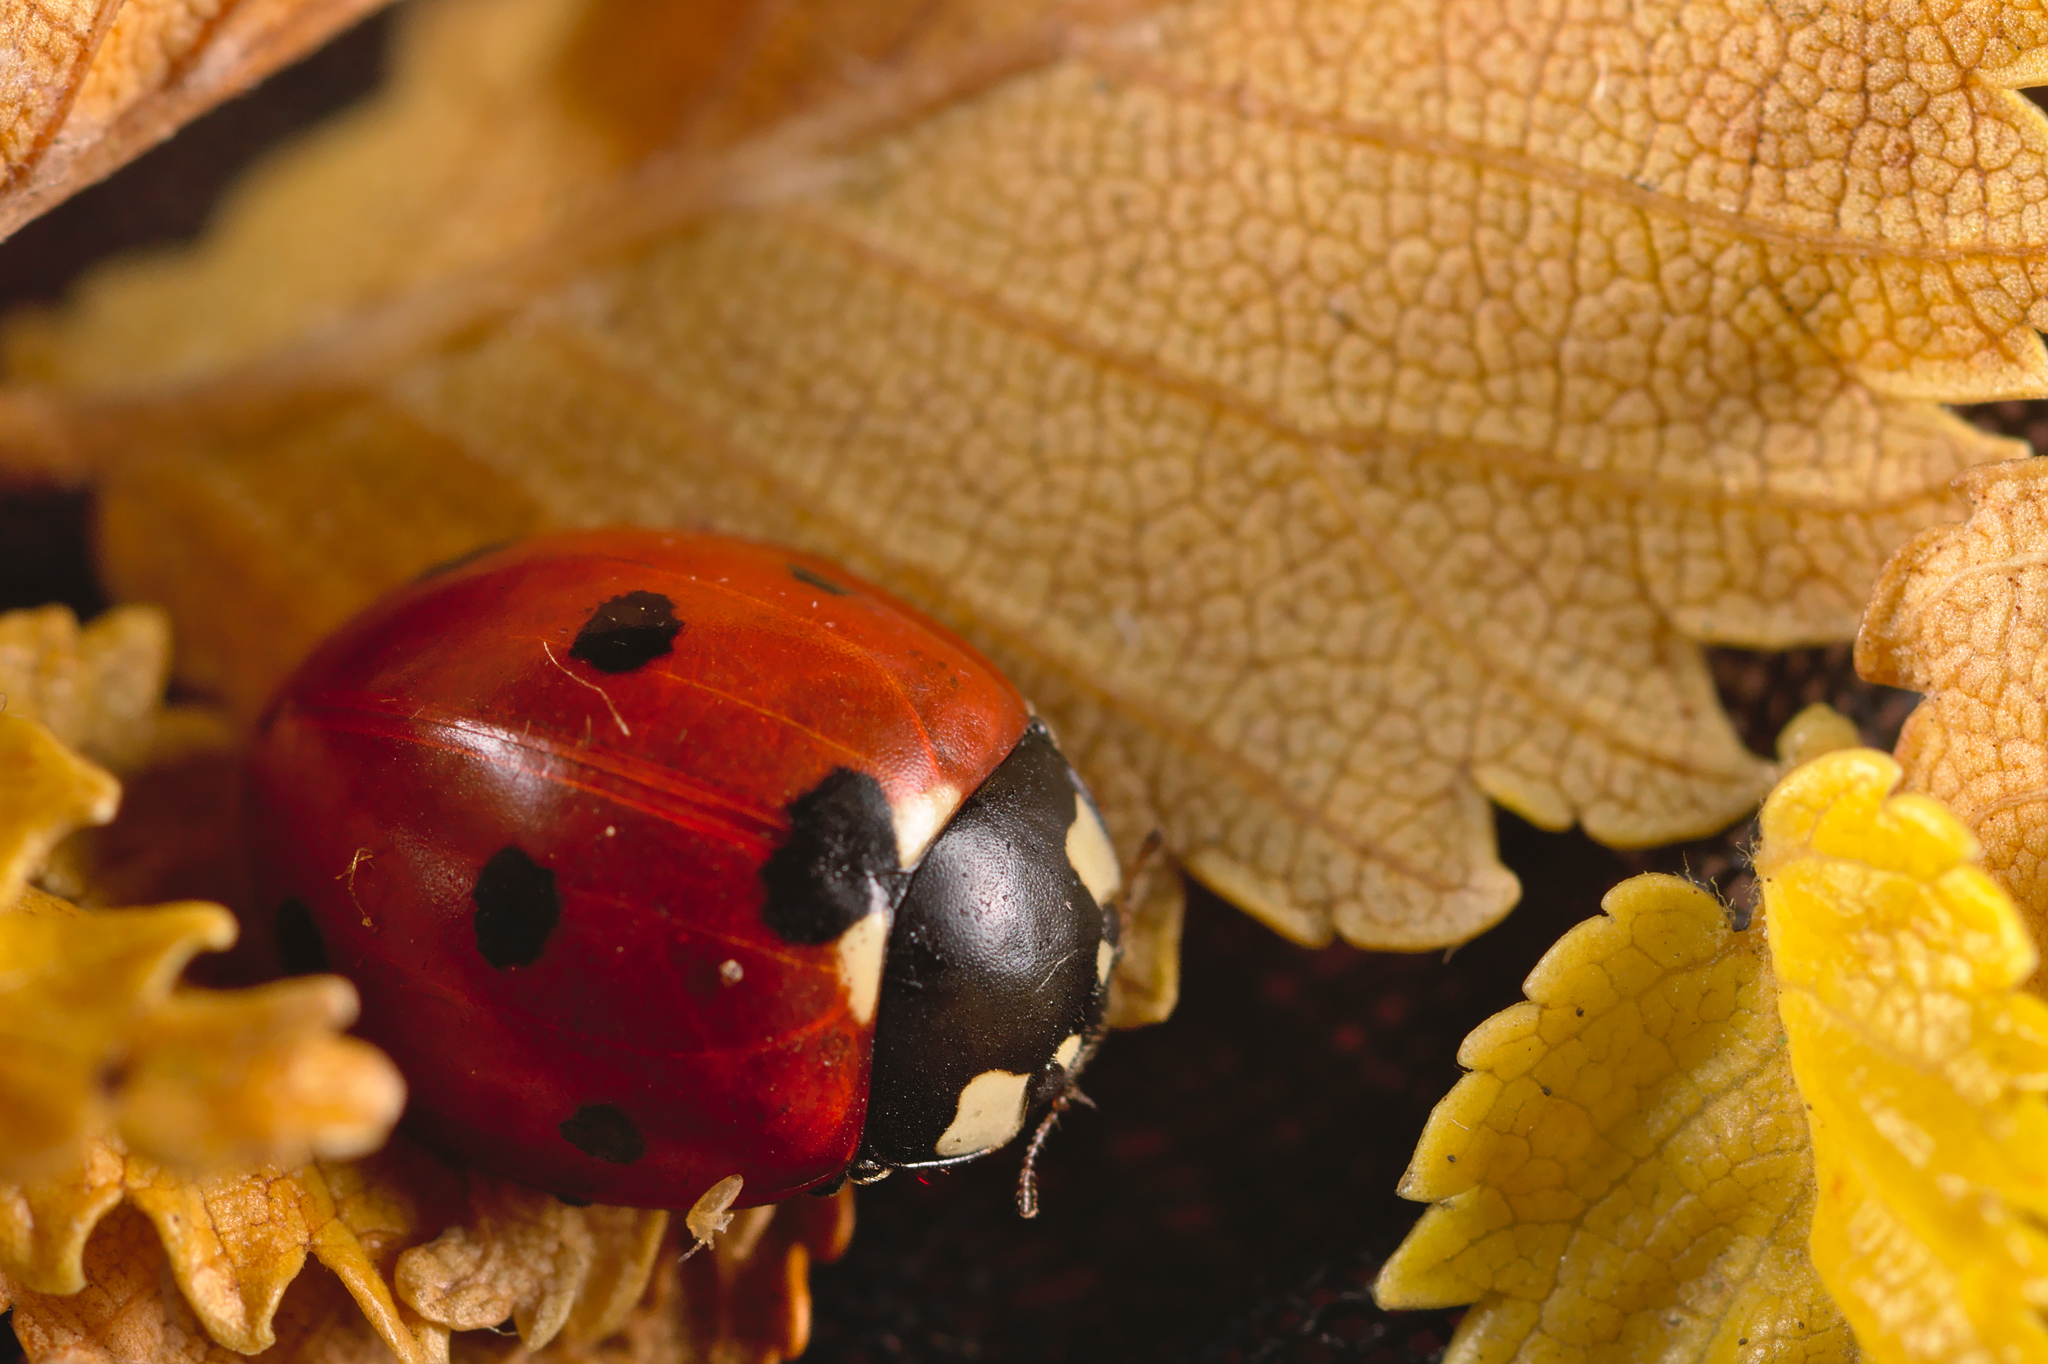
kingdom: Animalia
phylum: Arthropoda
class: Insecta
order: Coleoptera
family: Coccinellidae
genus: Coccinella
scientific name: Coccinella septempunctata
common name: Sevenspotted lady beetle
